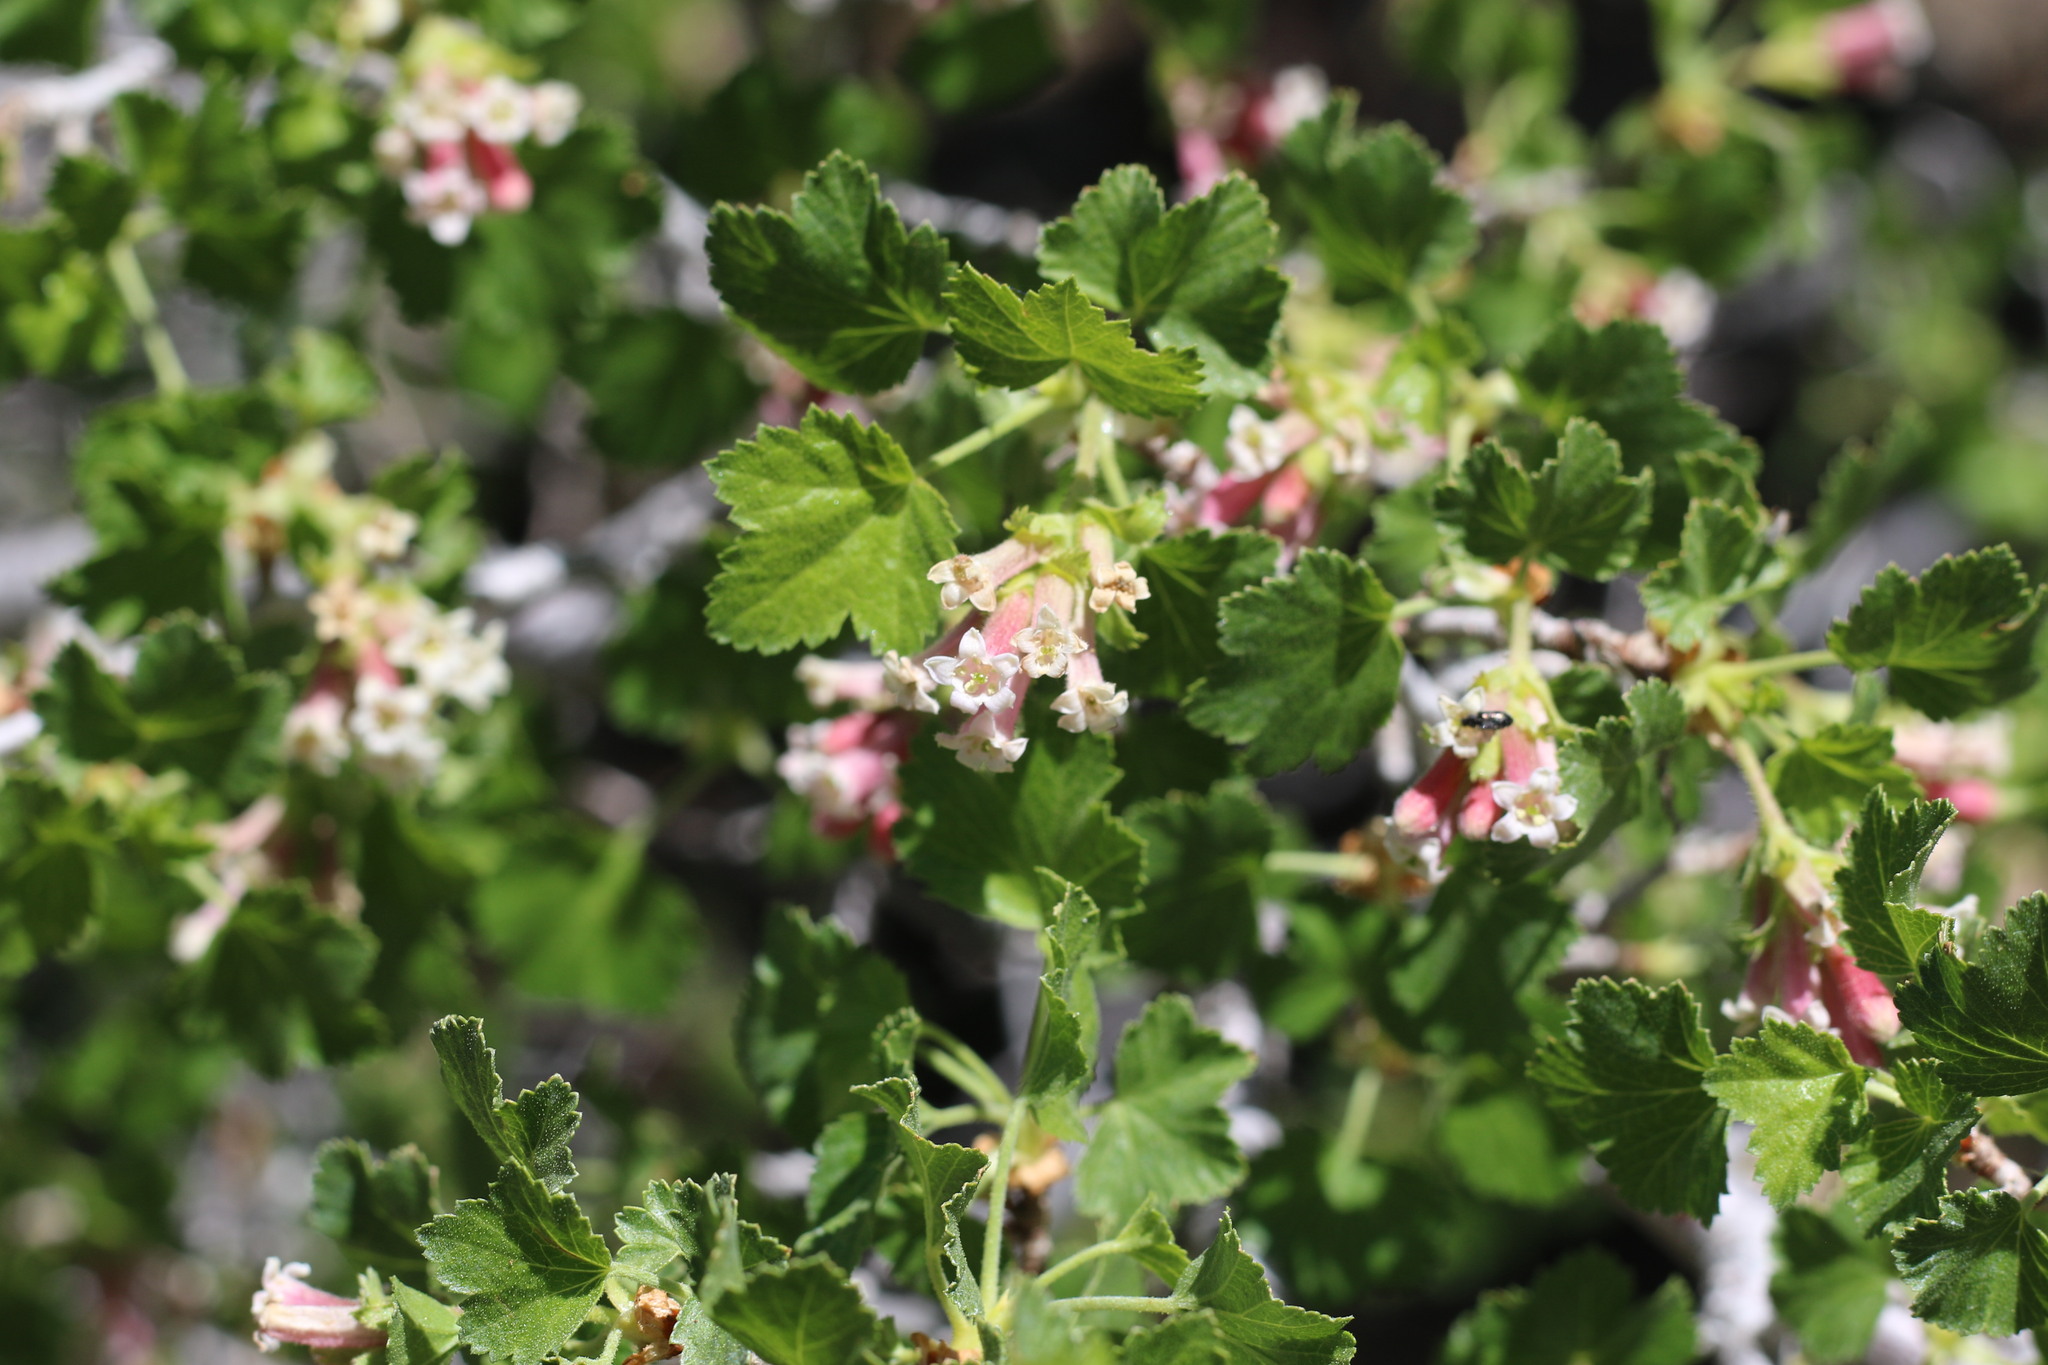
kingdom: Plantae
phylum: Tracheophyta
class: Magnoliopsida
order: Saxifragales
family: Grossulariaceae
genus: Ribes
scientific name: Ribes cereum
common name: Wax currant
